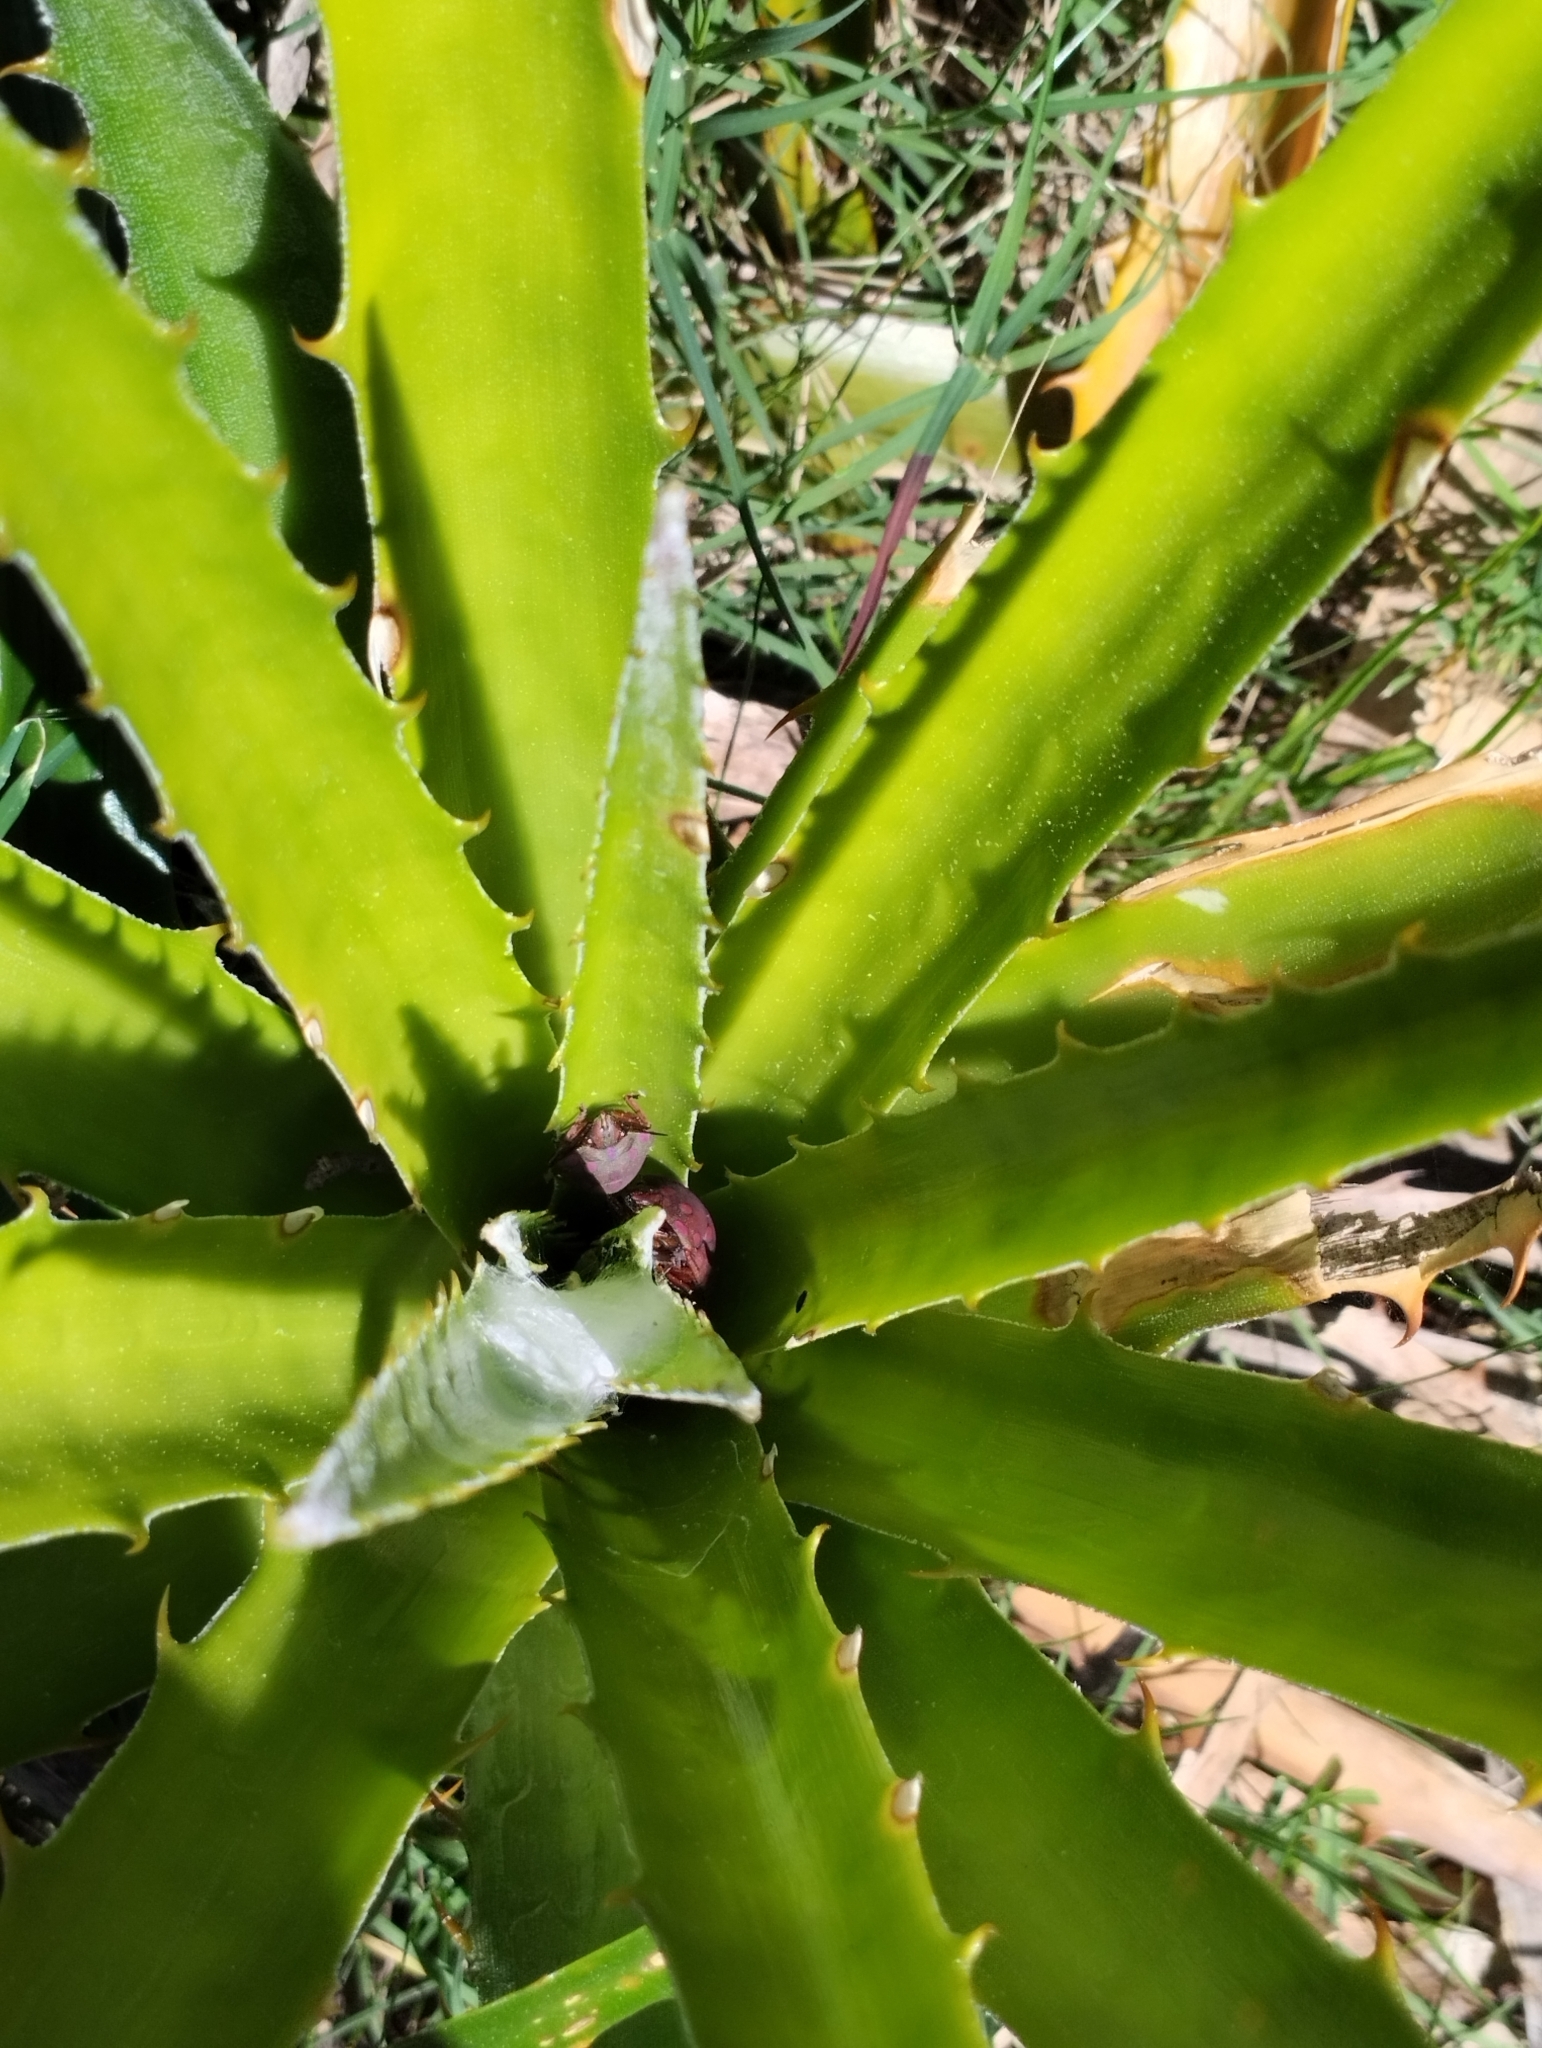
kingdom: Animalia
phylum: Arthropoda
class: Insecta
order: Hemiptera
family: Scutelleridae
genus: Pachycoris
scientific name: Pachycoris torridus
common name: Torrid jewel bug
